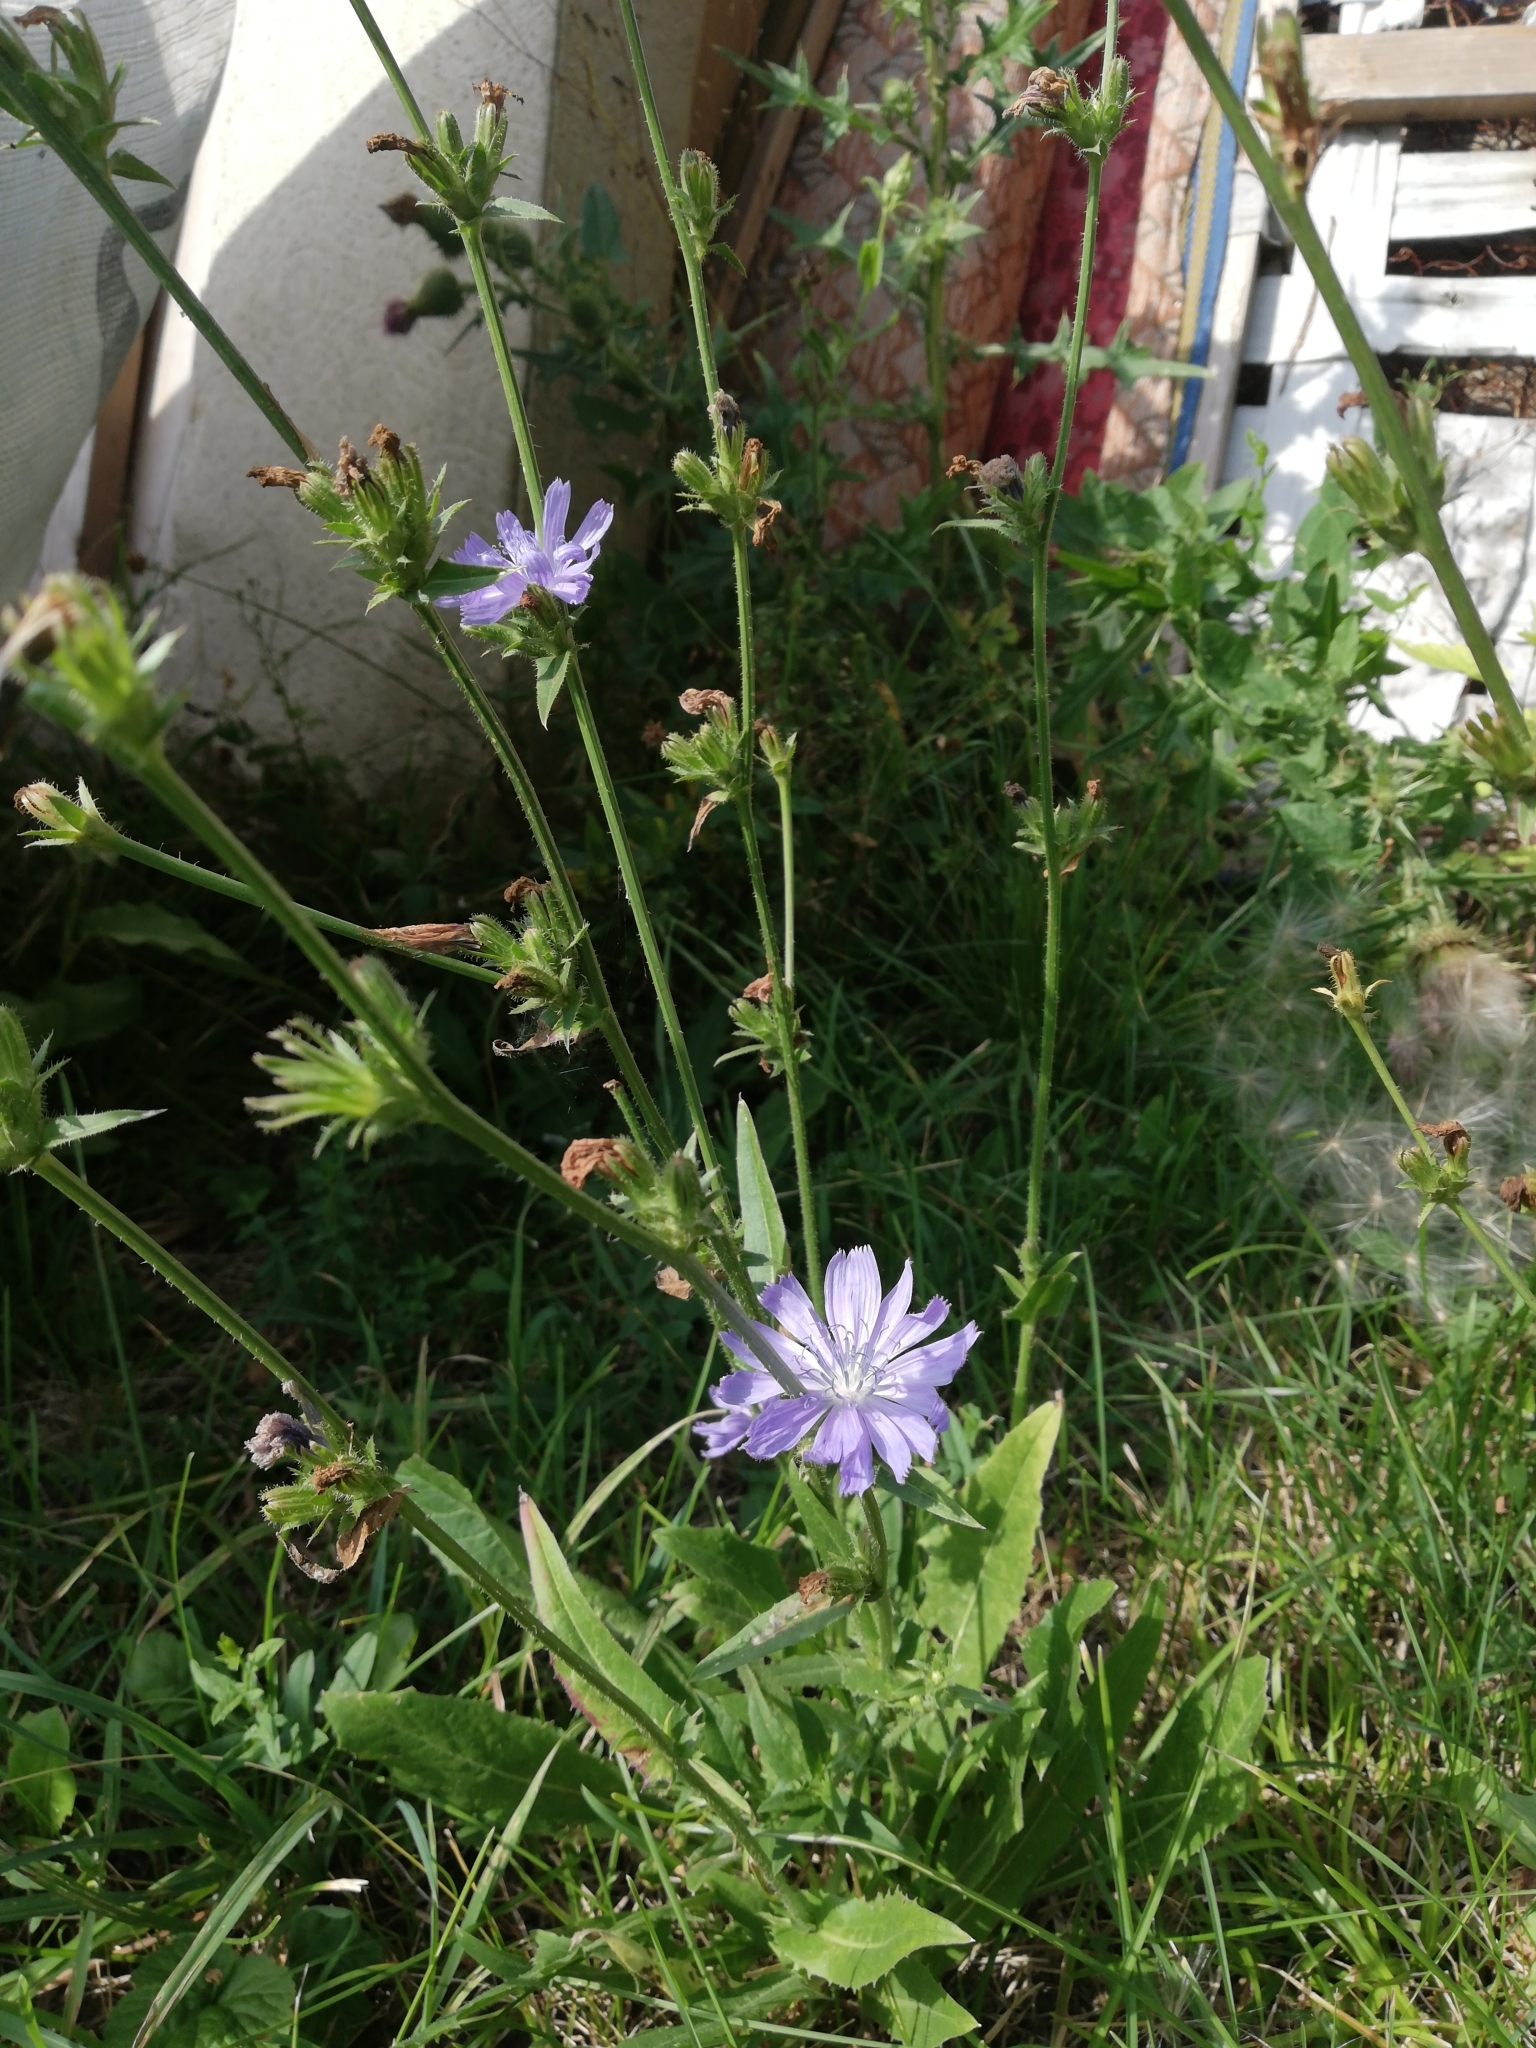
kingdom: Plantae
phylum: Tracheophyta
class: Magnoliopsida
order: Asterales
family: Asteraceae
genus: Cichorium
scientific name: Cichorium intybus
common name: Chicory
